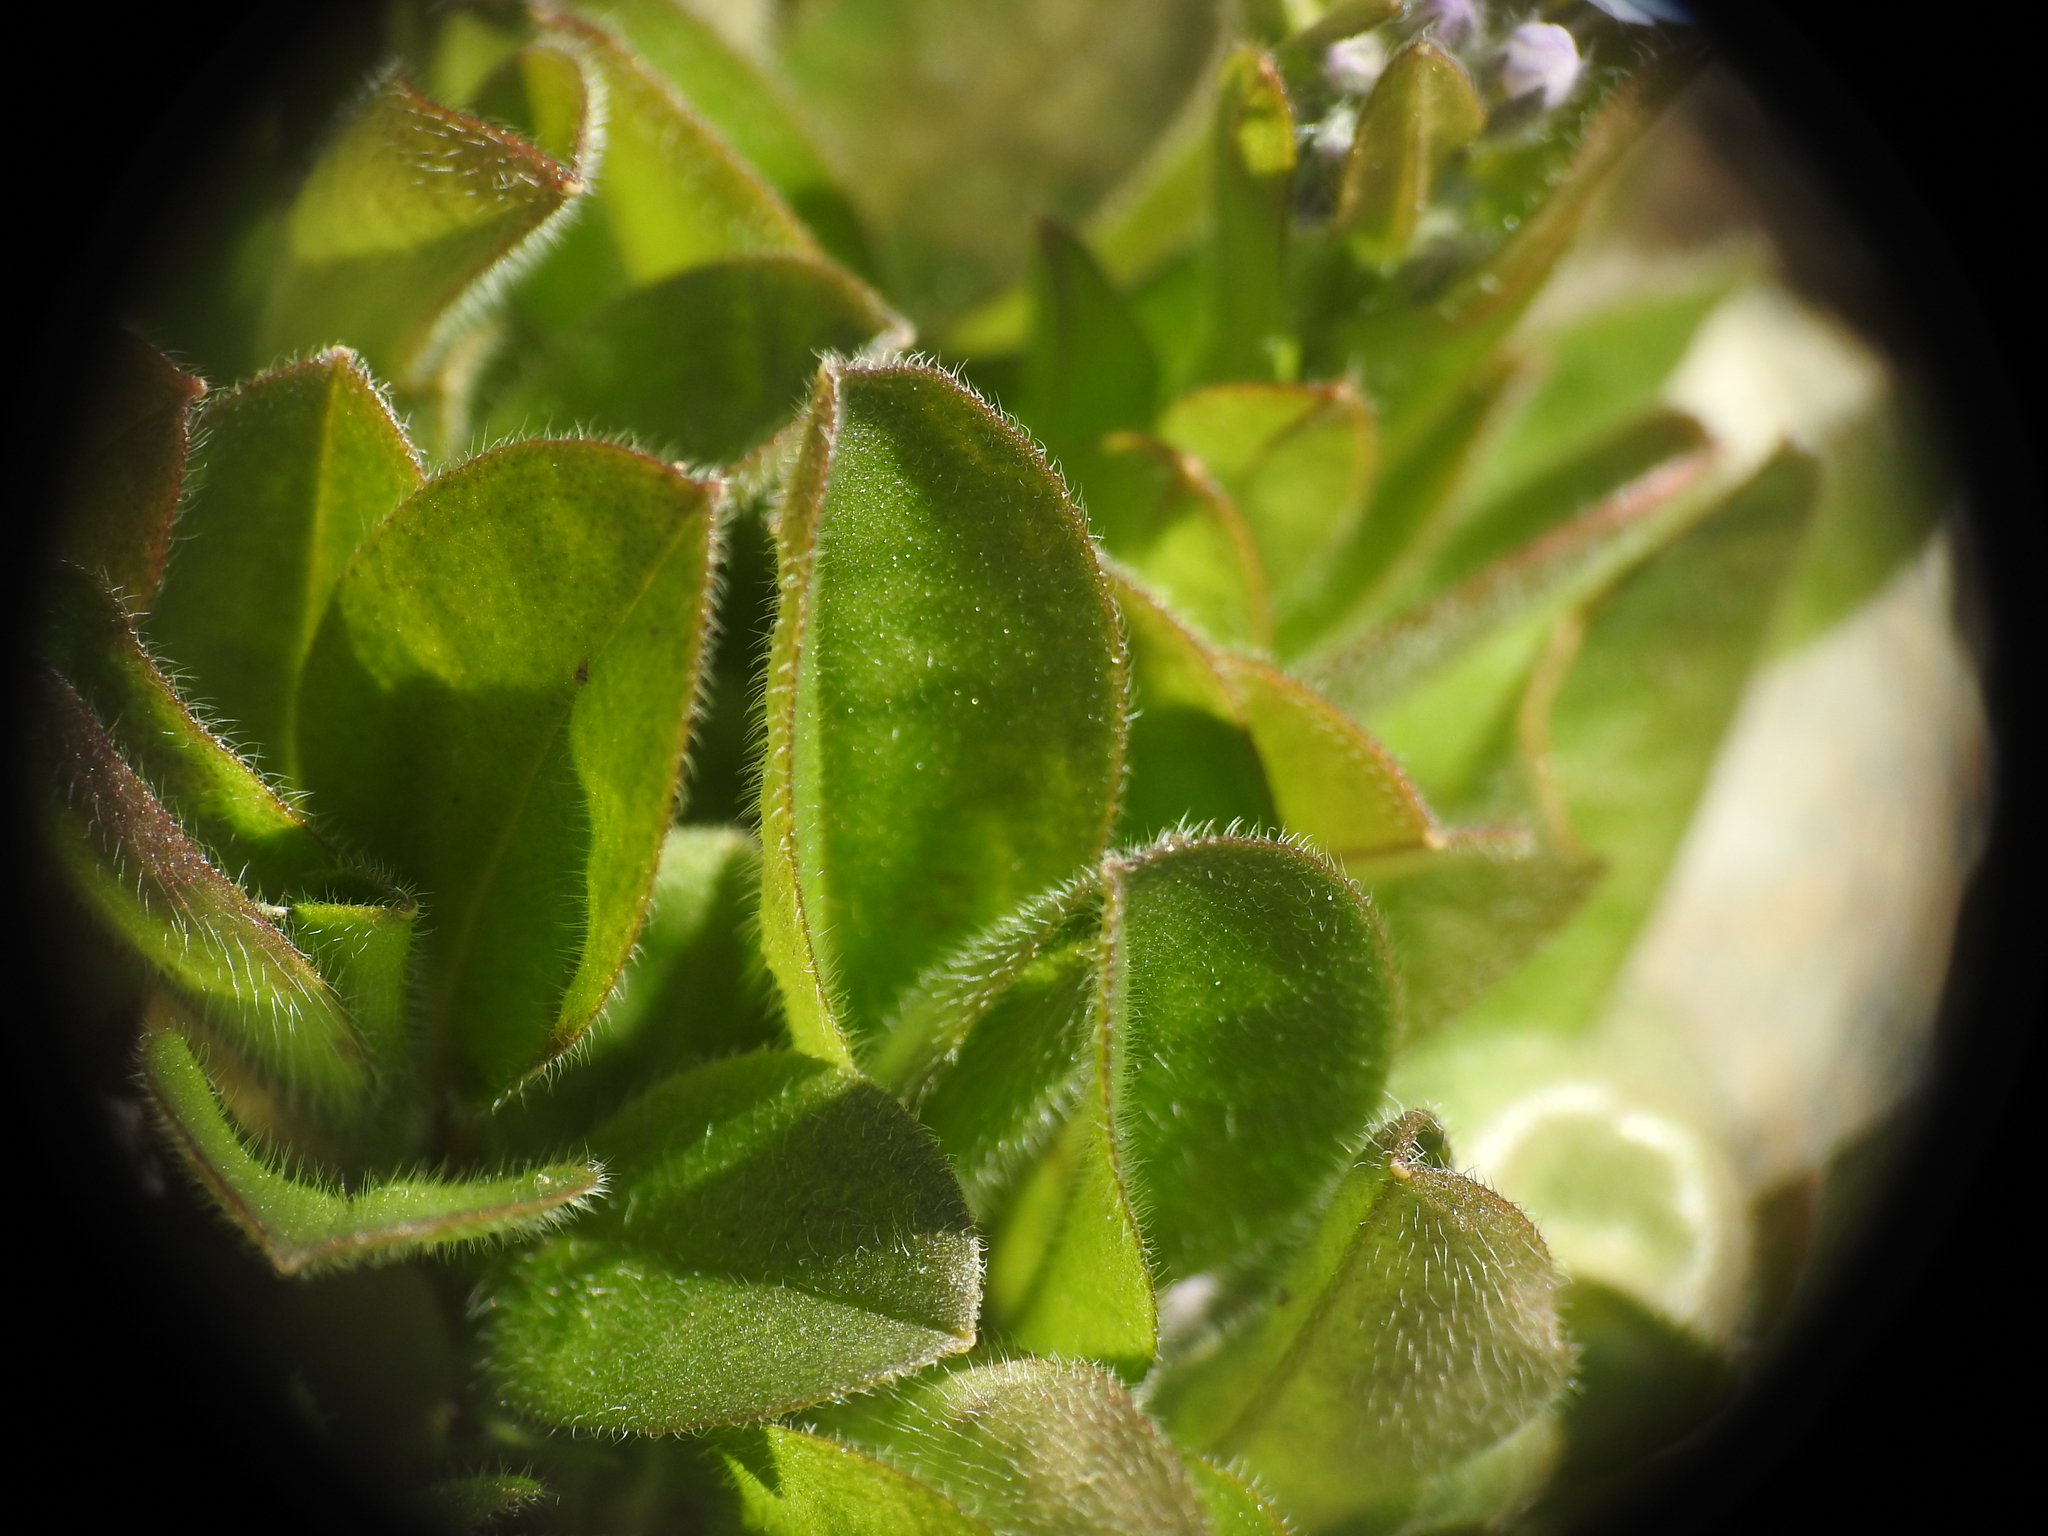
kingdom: Plantae
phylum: Tracheophyta
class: Magnoliopsida
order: Boraginales
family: Boraginaceae
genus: Myosotis
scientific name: Myosotis alpestris
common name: Alpine forget-me-not
